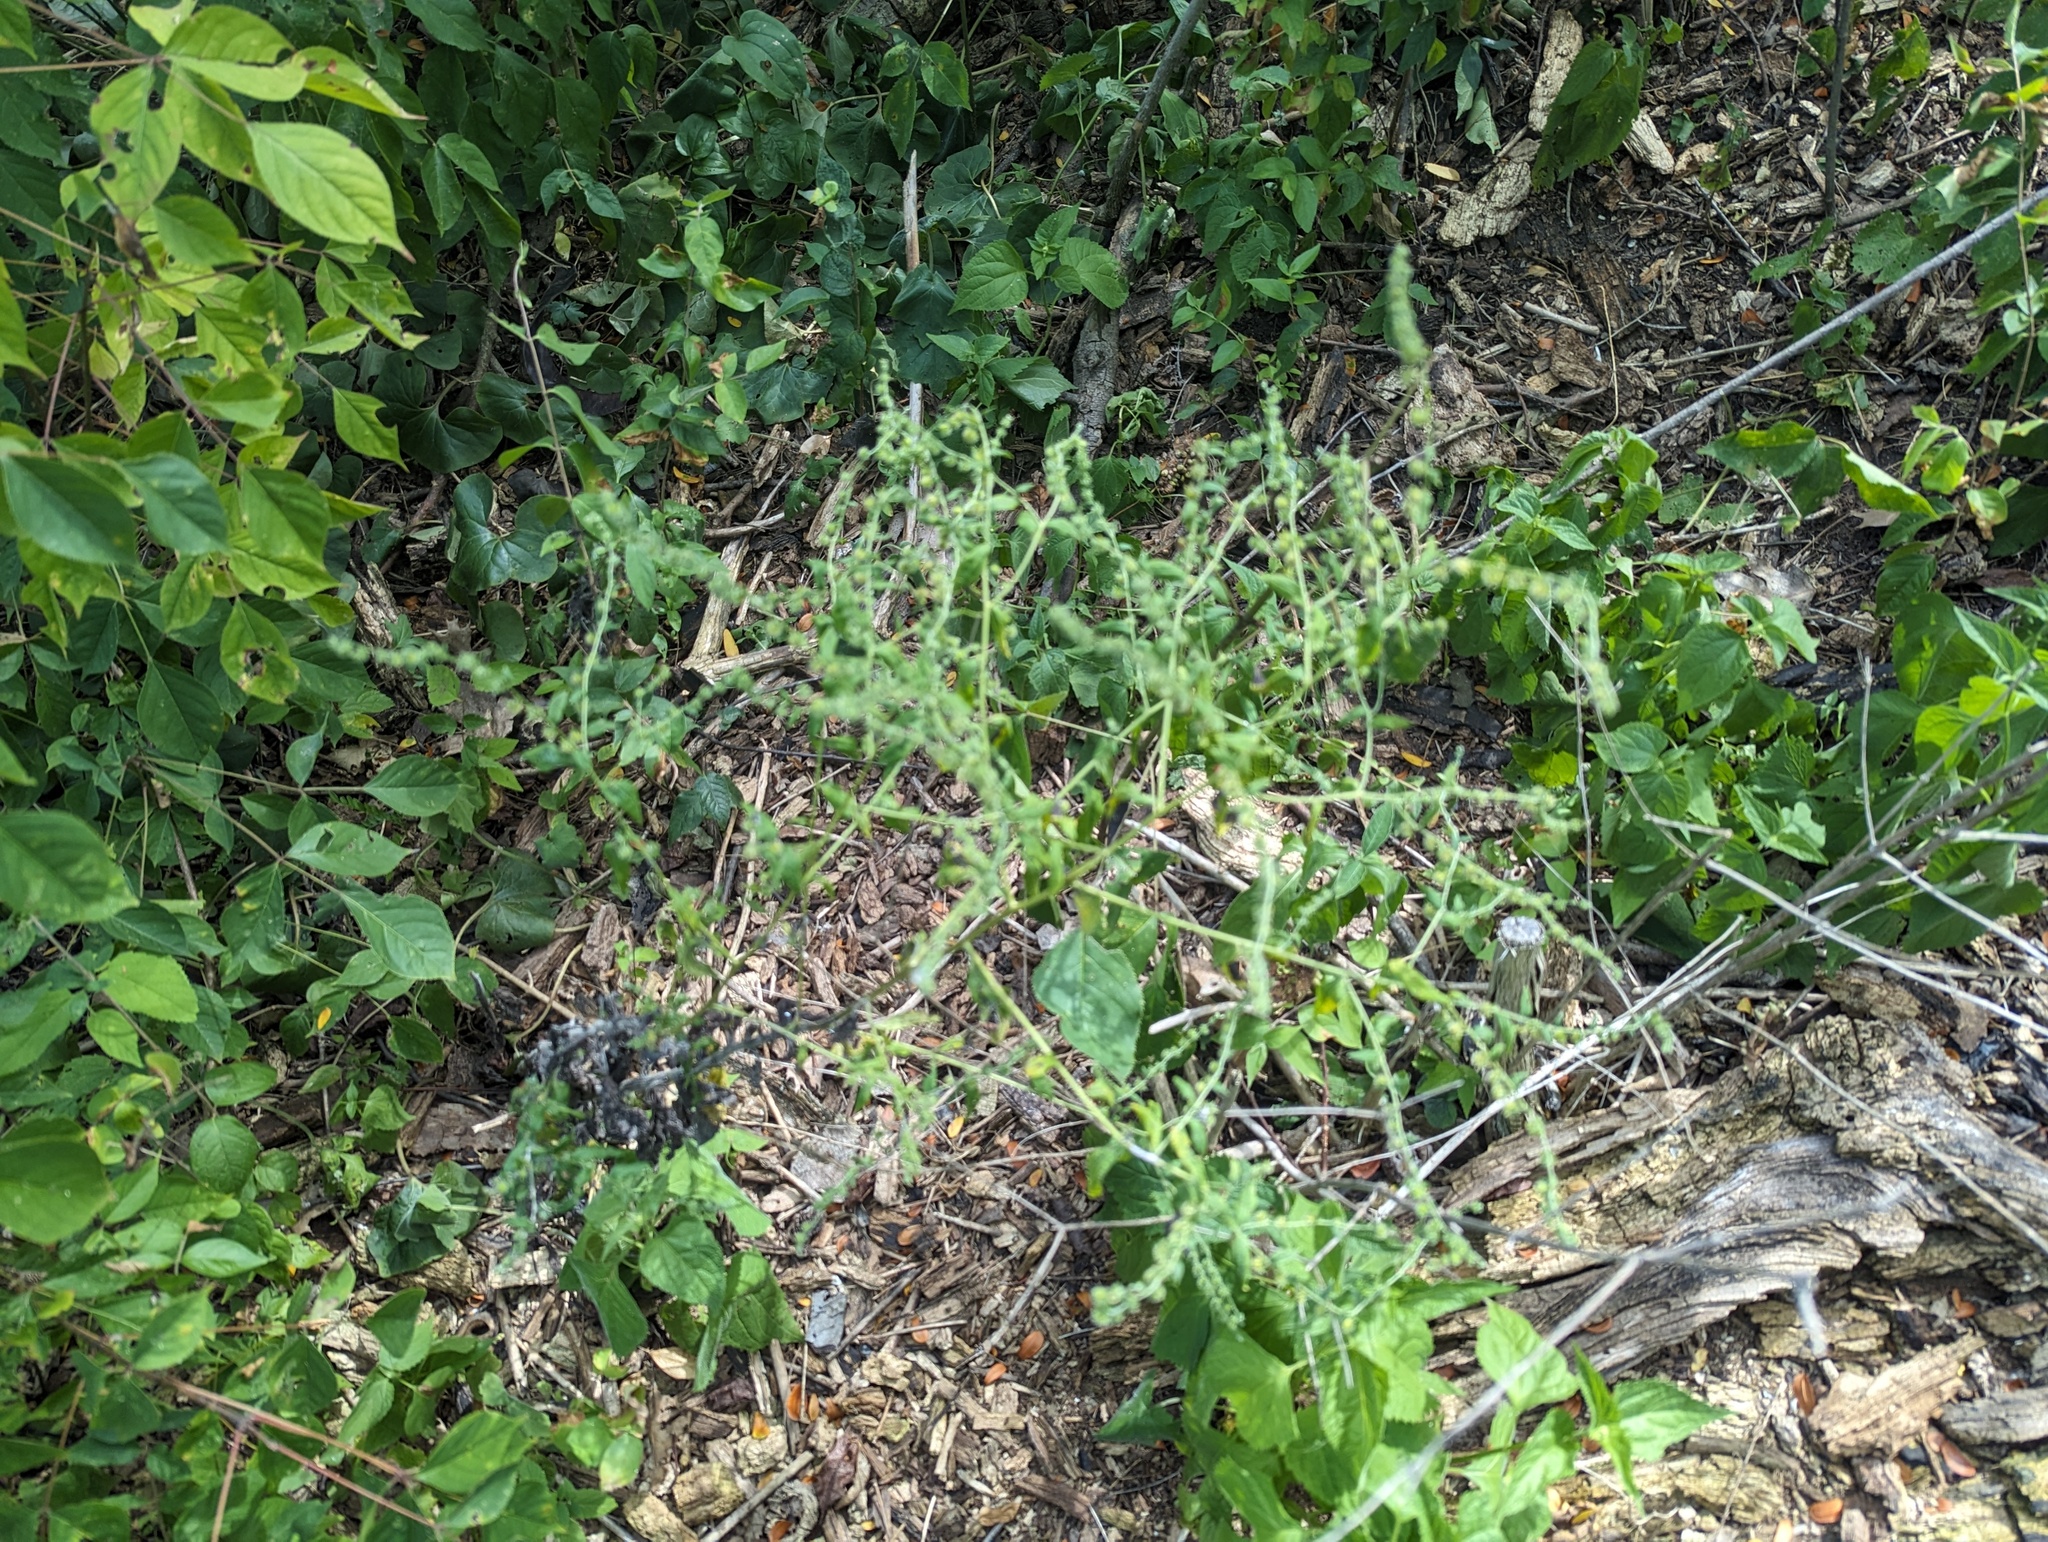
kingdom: Plantae
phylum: Tracheophyta
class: Magnoliopsida
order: Boraginales
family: Boraginaceae
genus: Hackelia
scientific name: Hackelia virginiana
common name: Beggar's-lice
